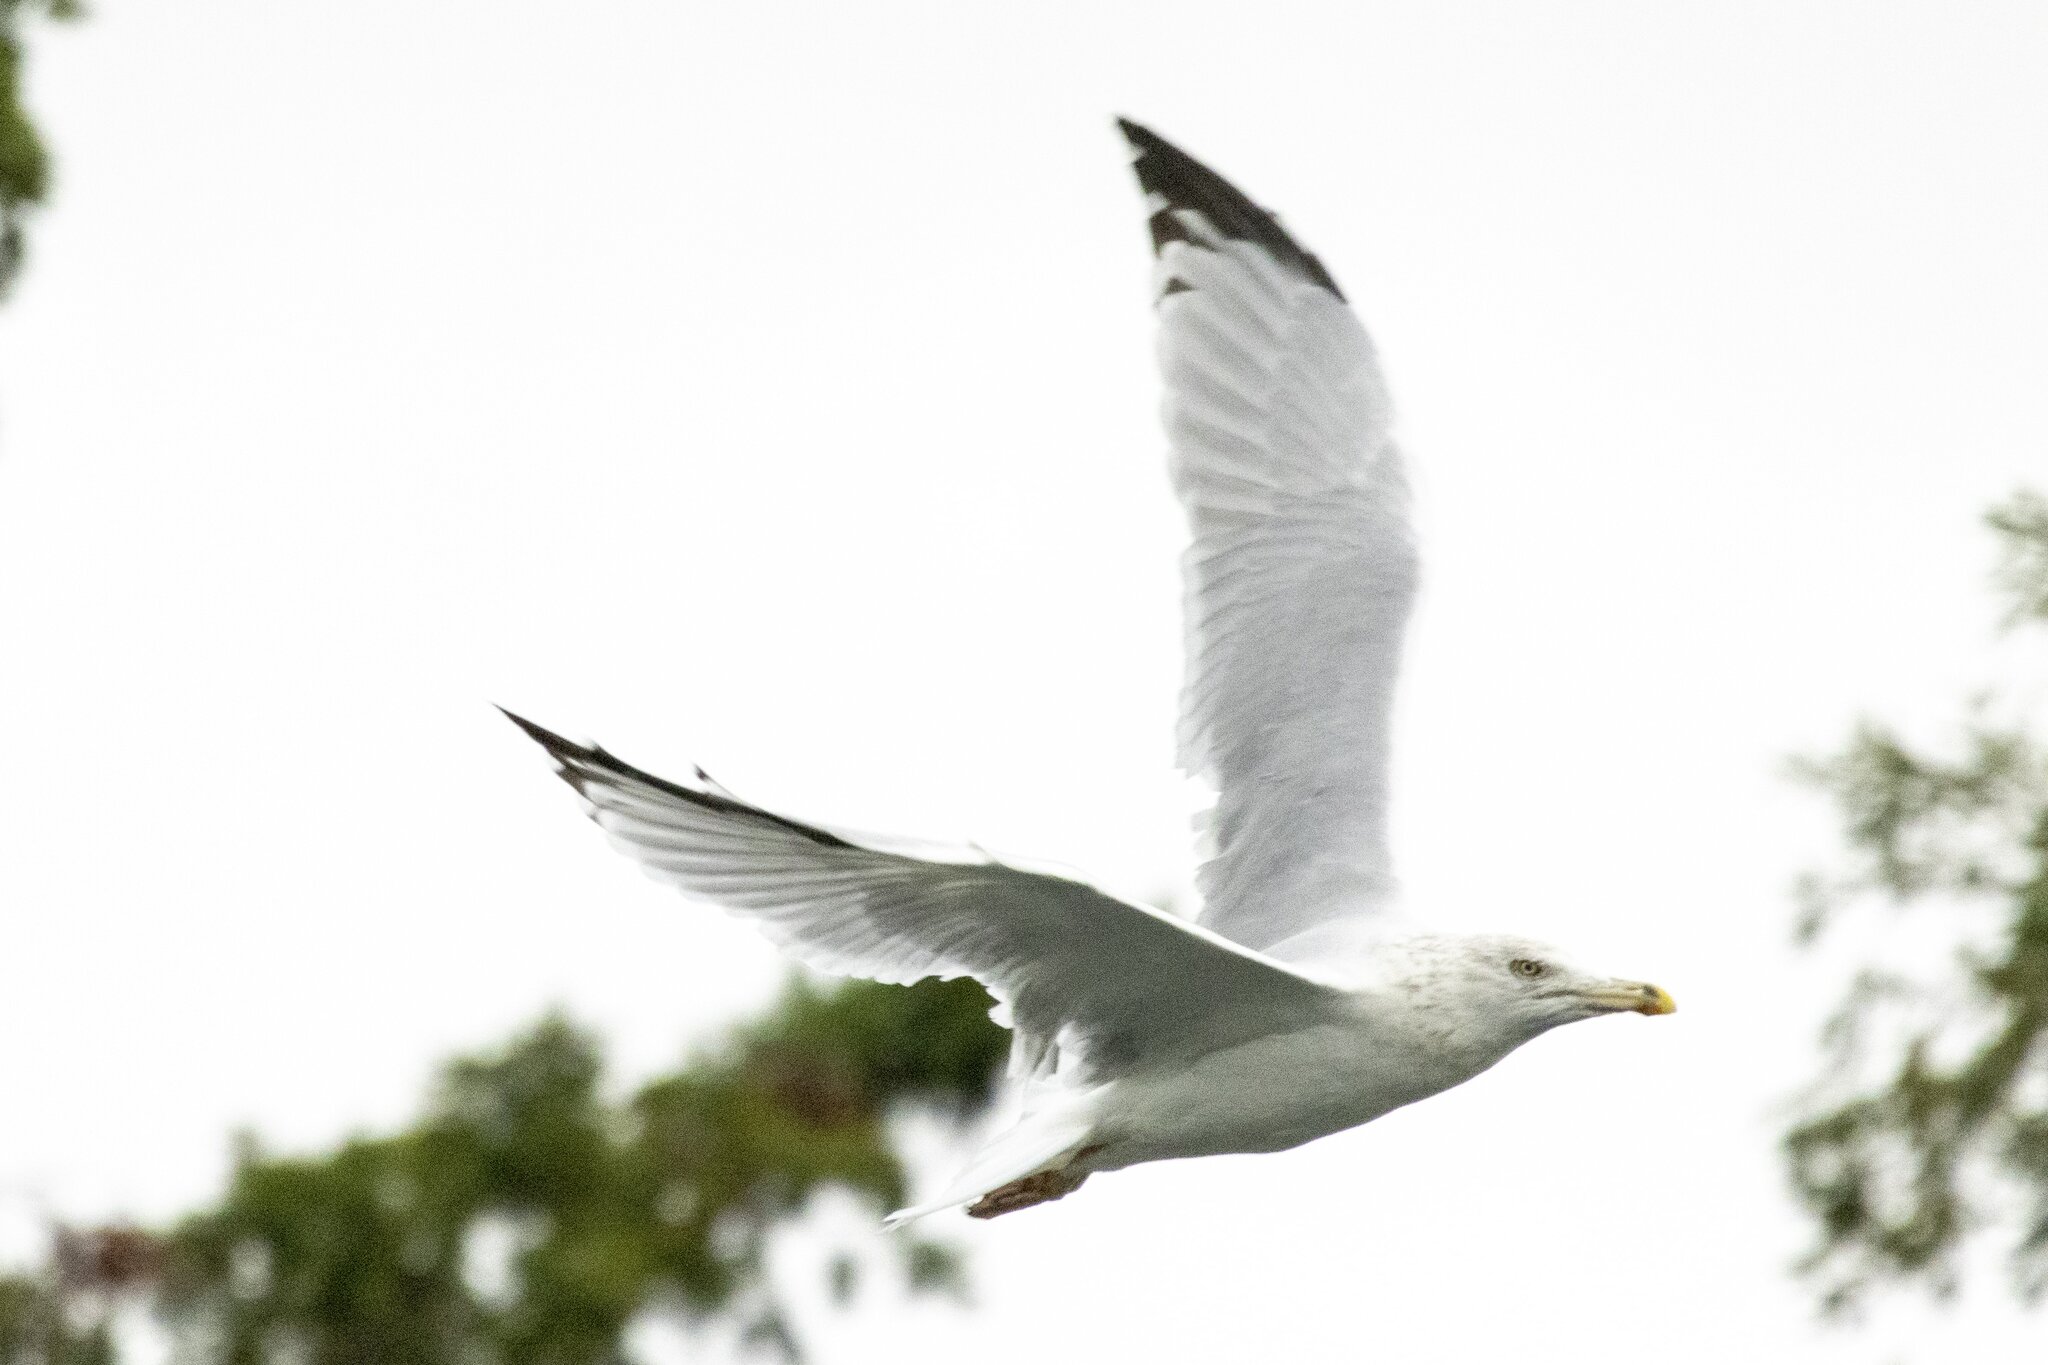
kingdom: Animalia
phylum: Chordata
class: Aves
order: Charadriiformes
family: Laridae
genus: Larus
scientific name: Larus argentatus
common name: Herring gull
